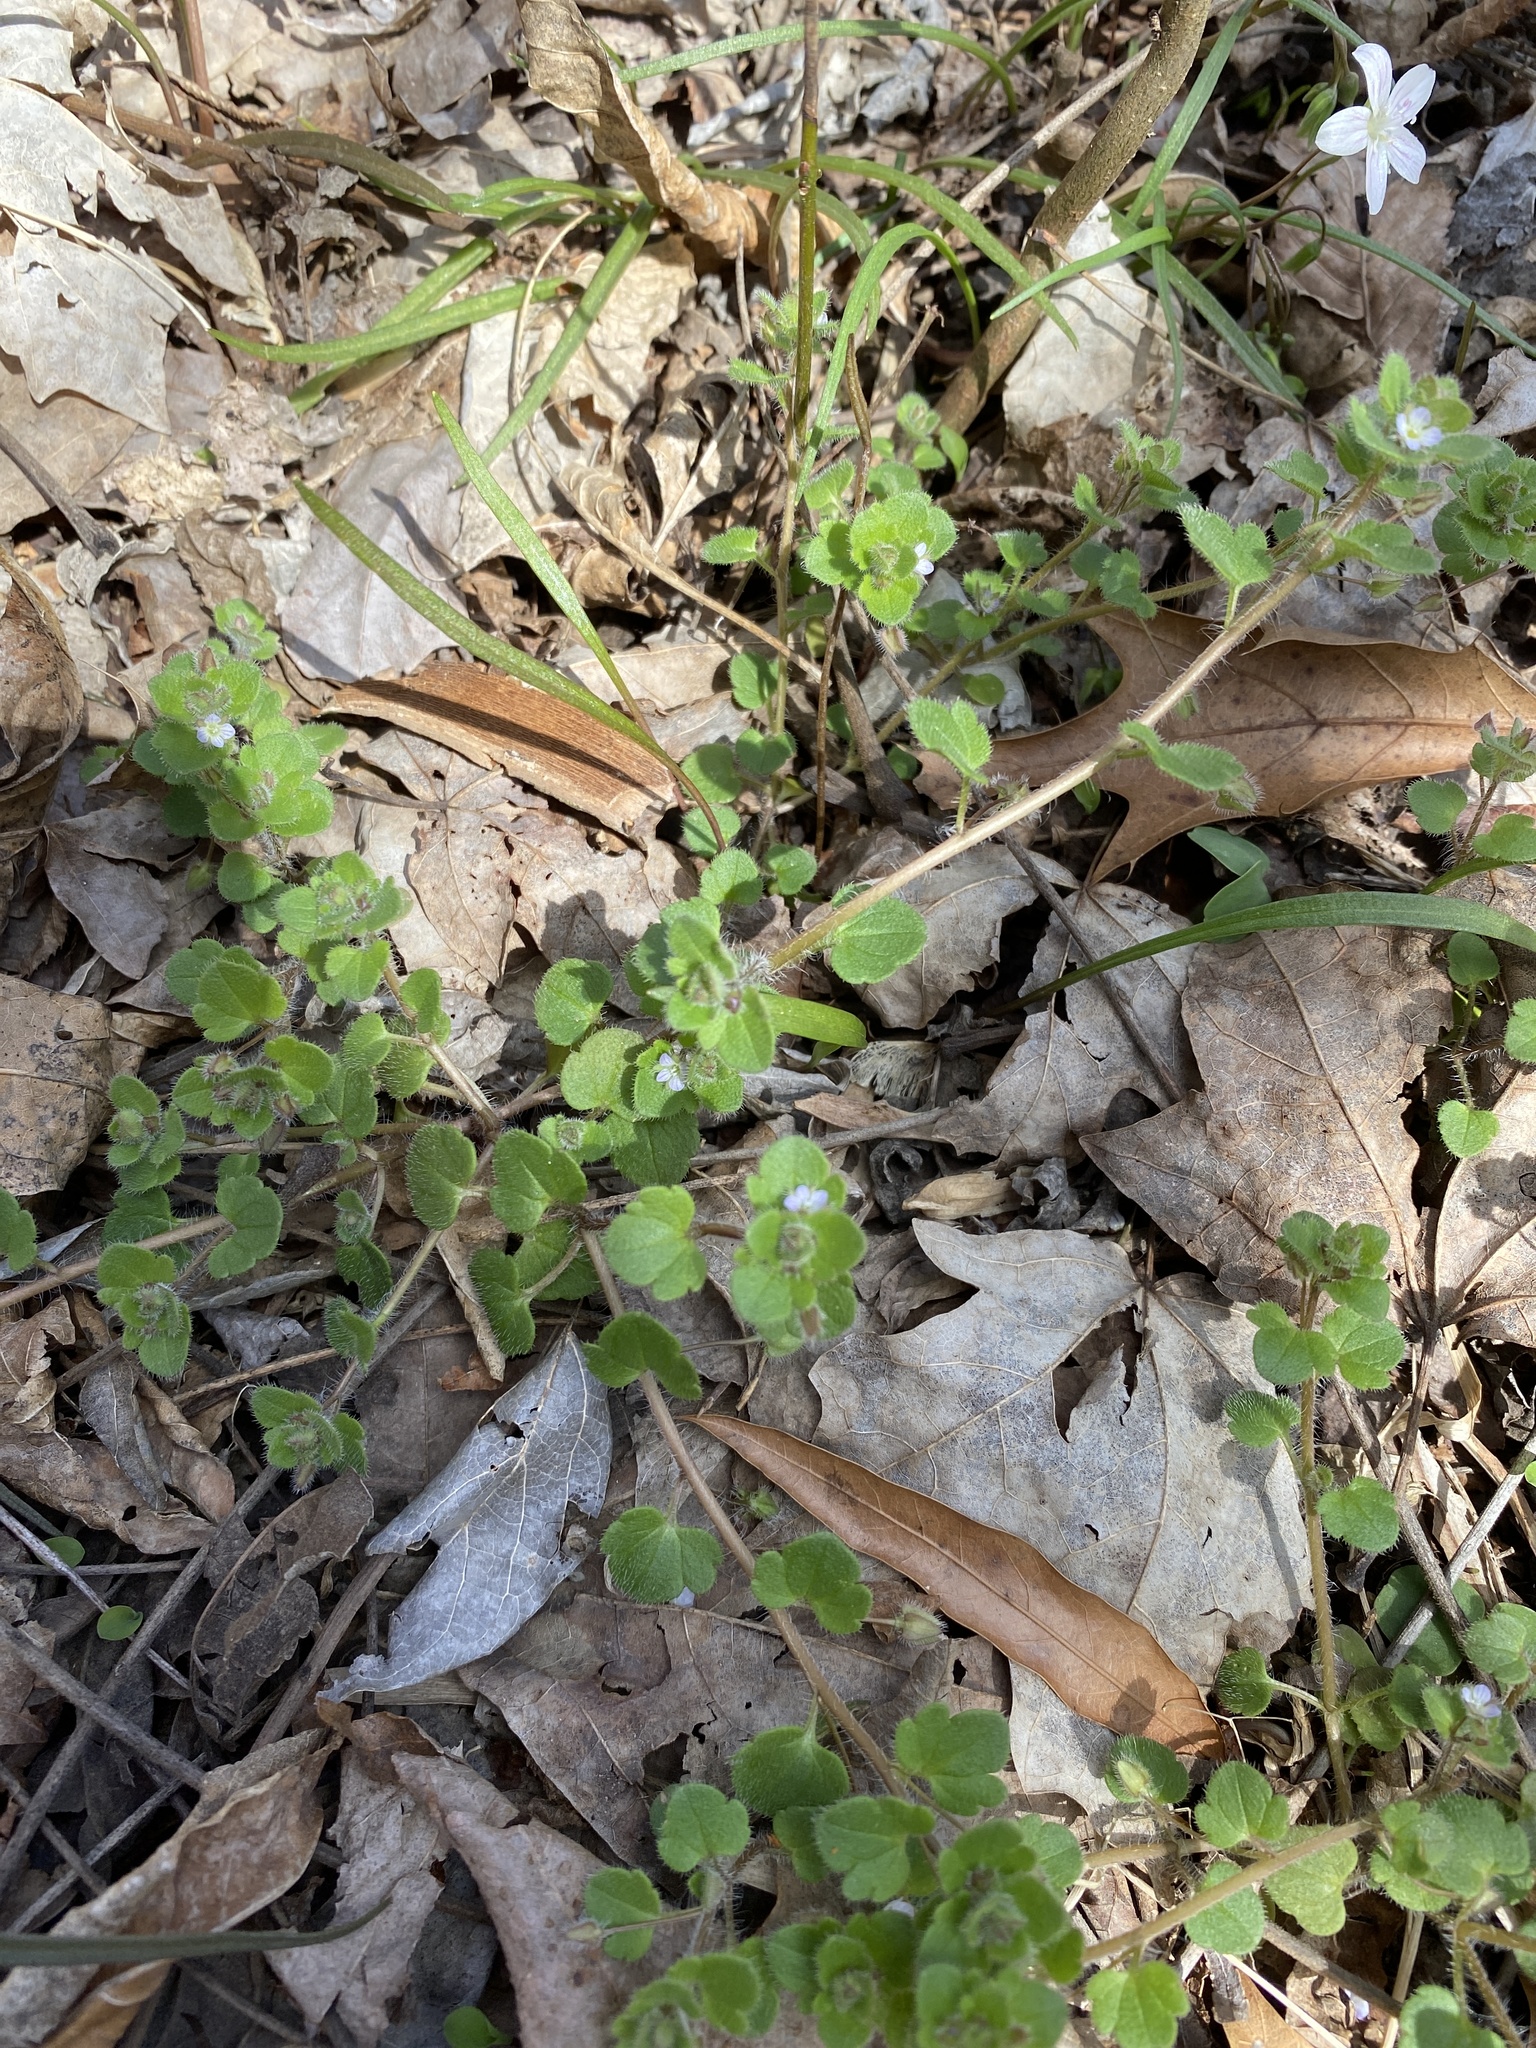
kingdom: Plantae
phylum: Tracheophyta
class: Magnoliopsida
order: Lamiales
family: Plantaginaceae
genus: Veronica
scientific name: Veronica hederifolia
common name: Ivy-leaved speedwell
